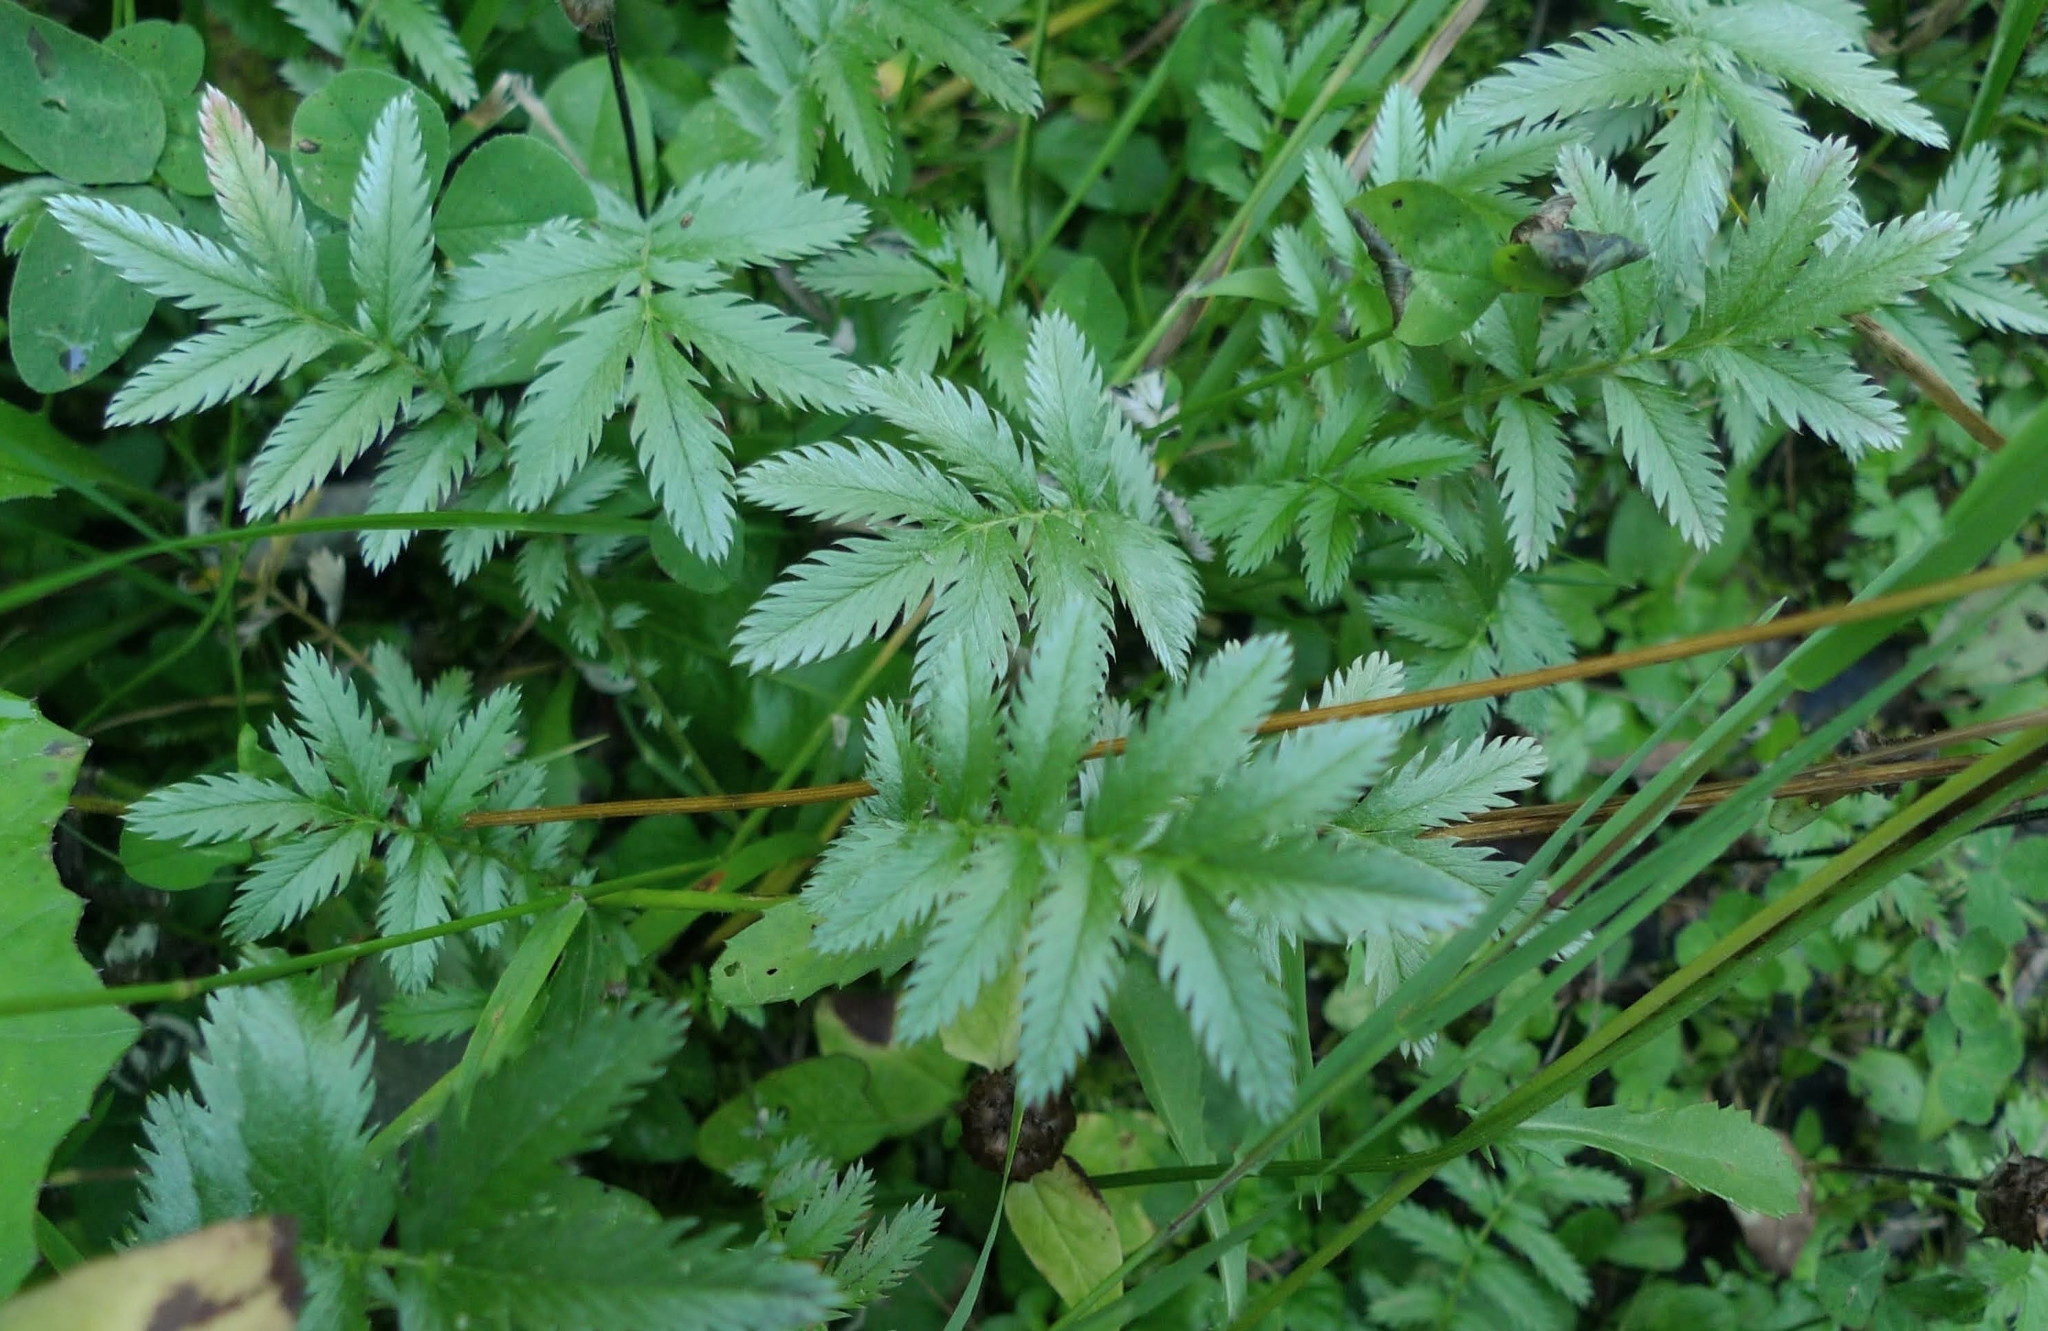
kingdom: Plantae
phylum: Tracheophyta
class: Magnoliopsida
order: Rosales
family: Rosaceae
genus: Argentina
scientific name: Argentina anserina
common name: Common silverweed
